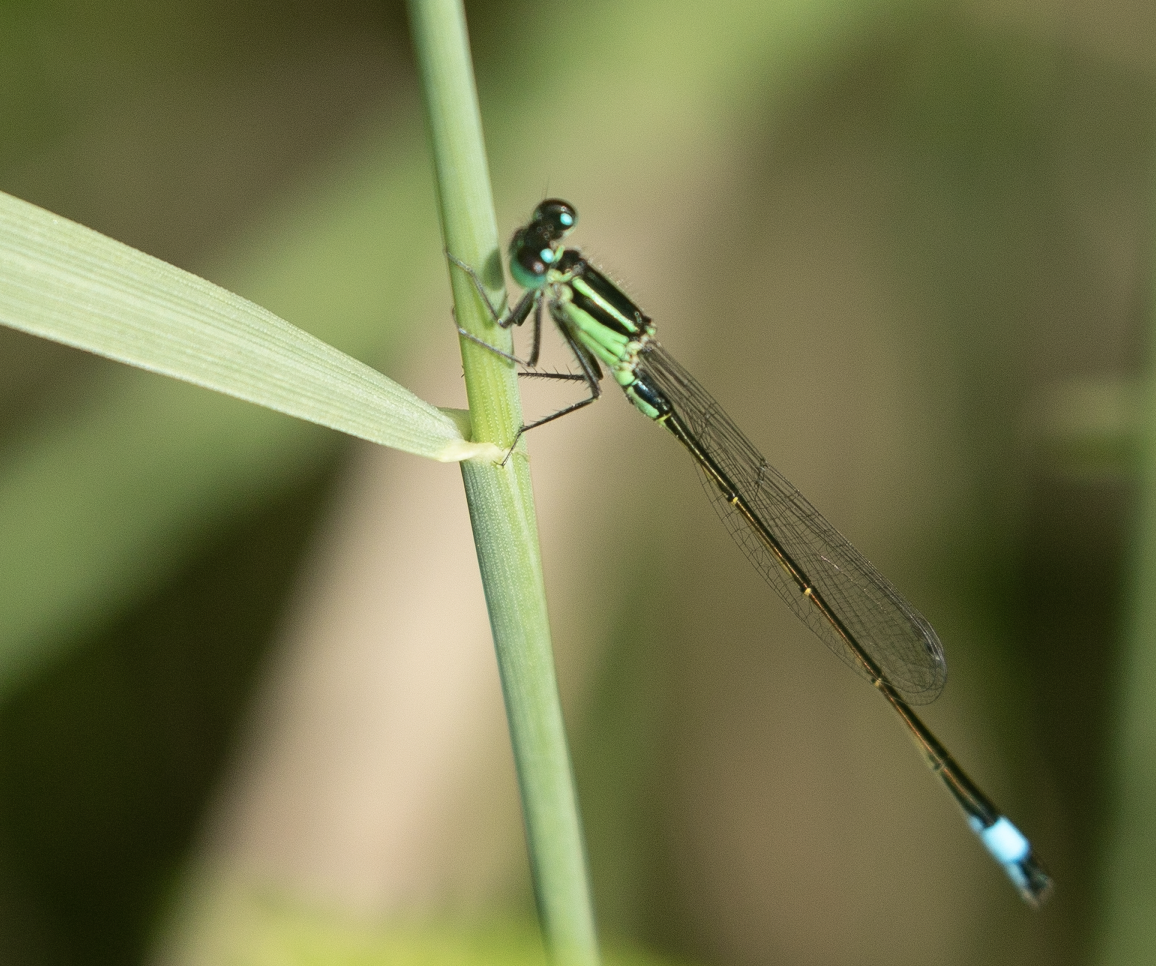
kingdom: Animalia
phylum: Arthropoda
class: Insecta
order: Odonata
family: Coenagrionidae
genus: Ischnura
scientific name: Ischnura elegans
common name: Blue-tailed damselfly
